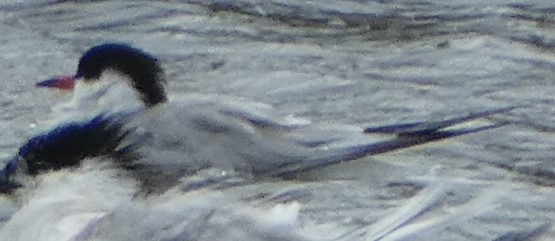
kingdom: Animalia
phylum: Chordata
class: Aves
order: Charadriiformes
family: Laridae
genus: Sterna
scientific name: Sterna hirundo
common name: Common tern
